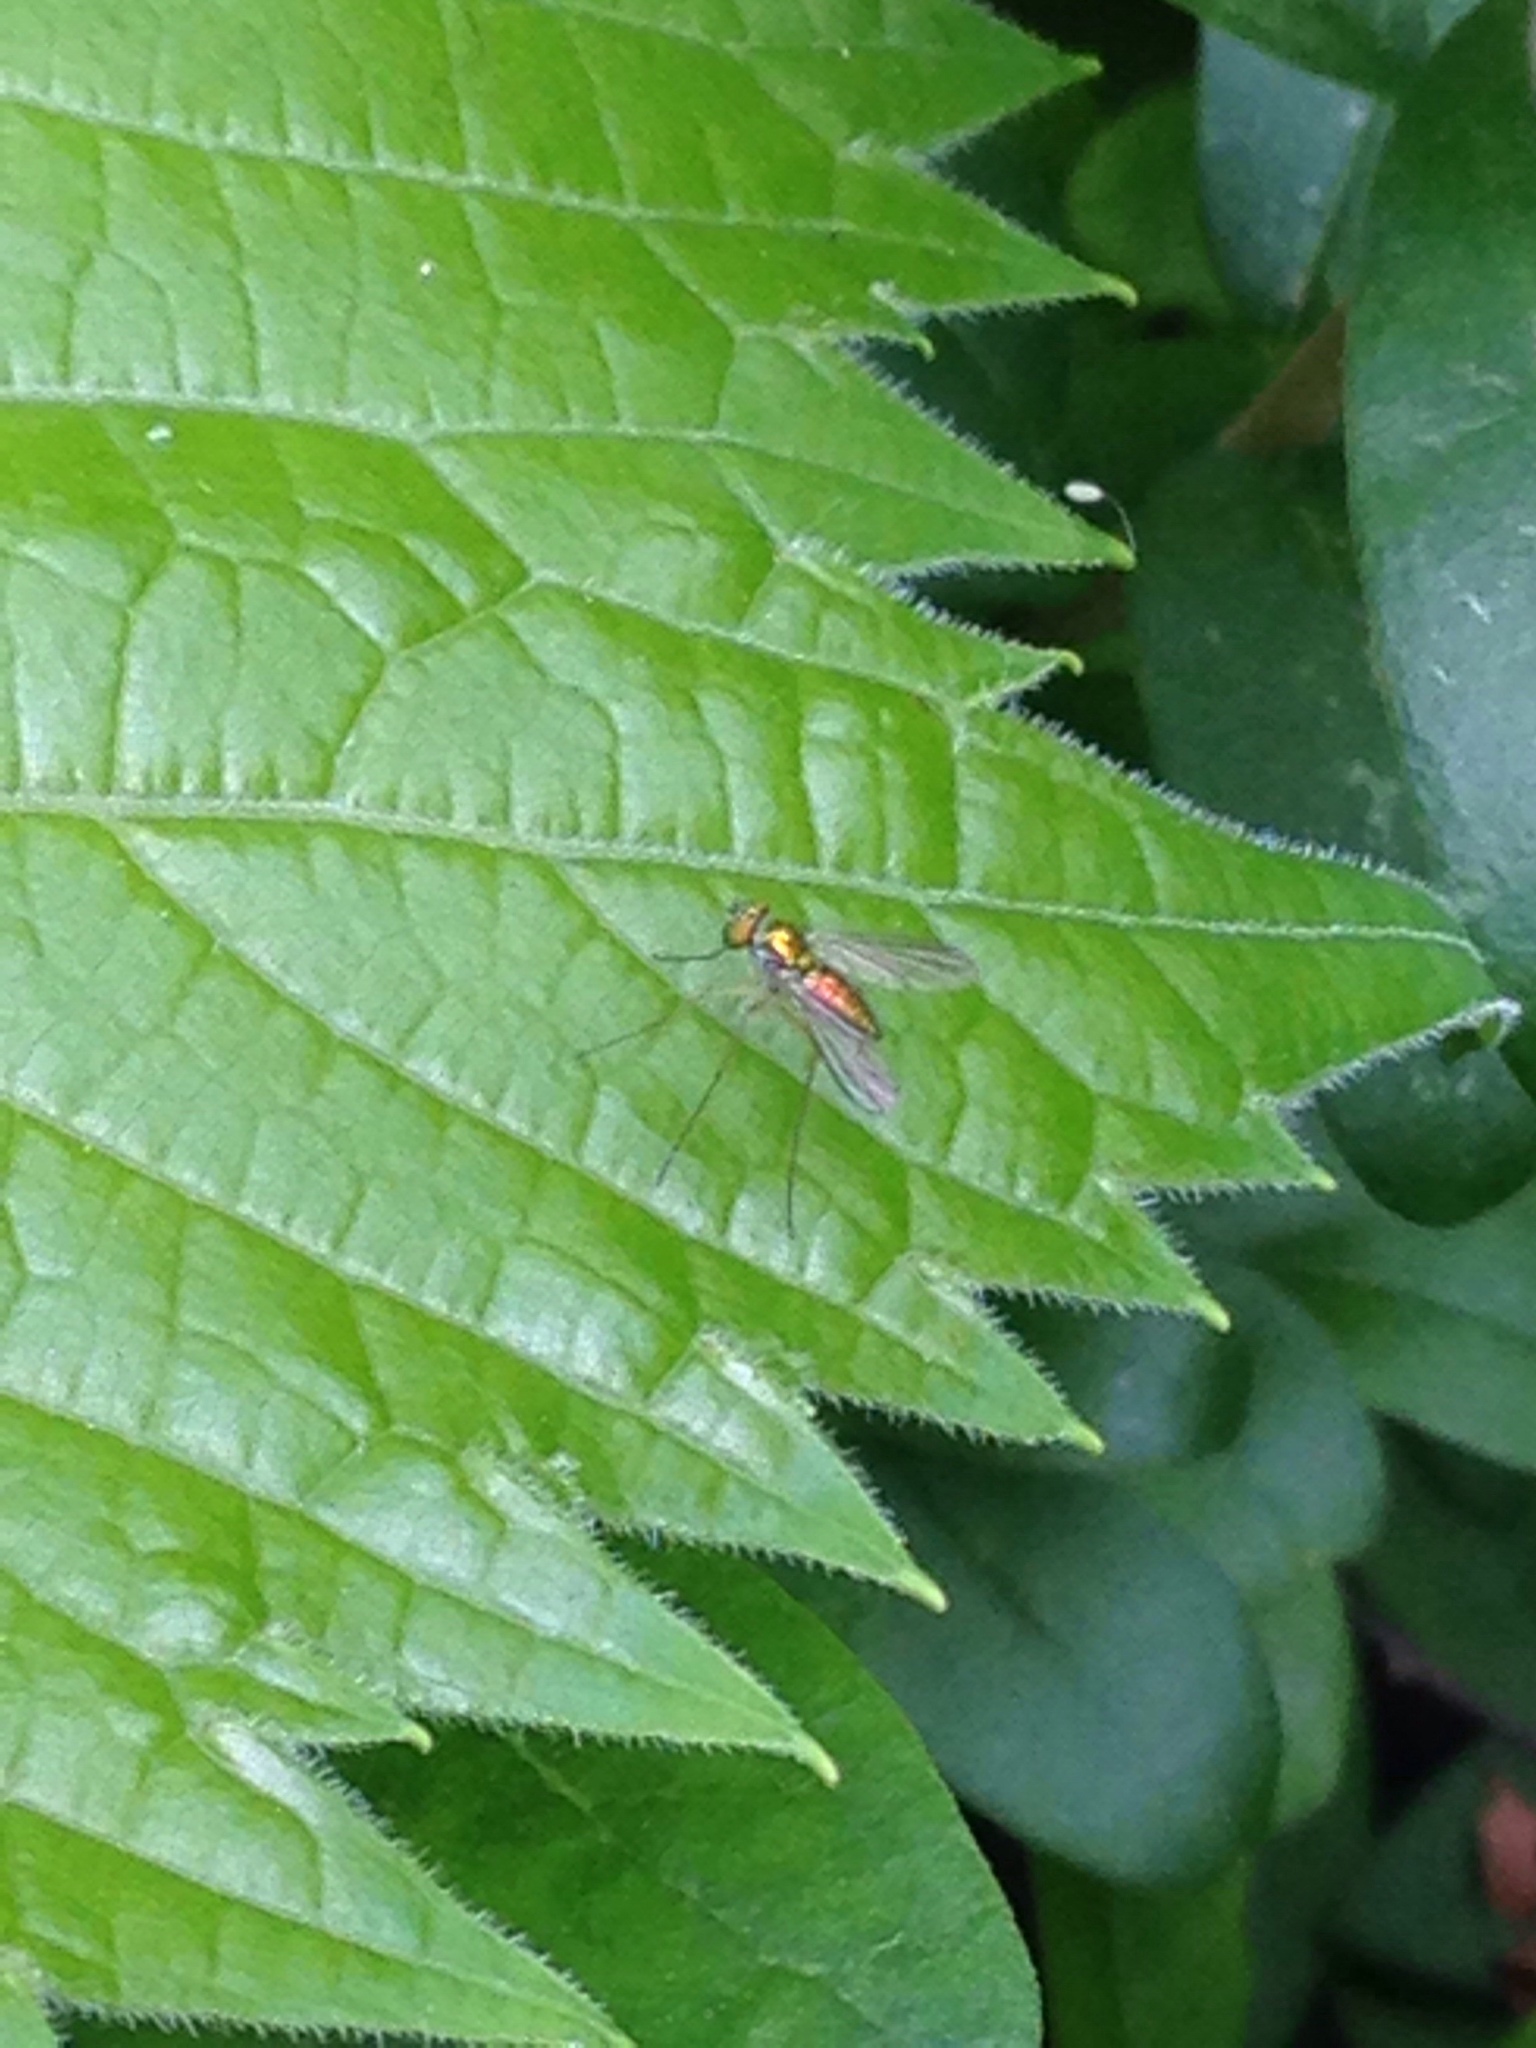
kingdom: Animalia
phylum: Arthropoda
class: Insecta
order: Diptera
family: Dolichopodidae
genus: Amblypsilopus
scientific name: Amblypsilopus scintillans
